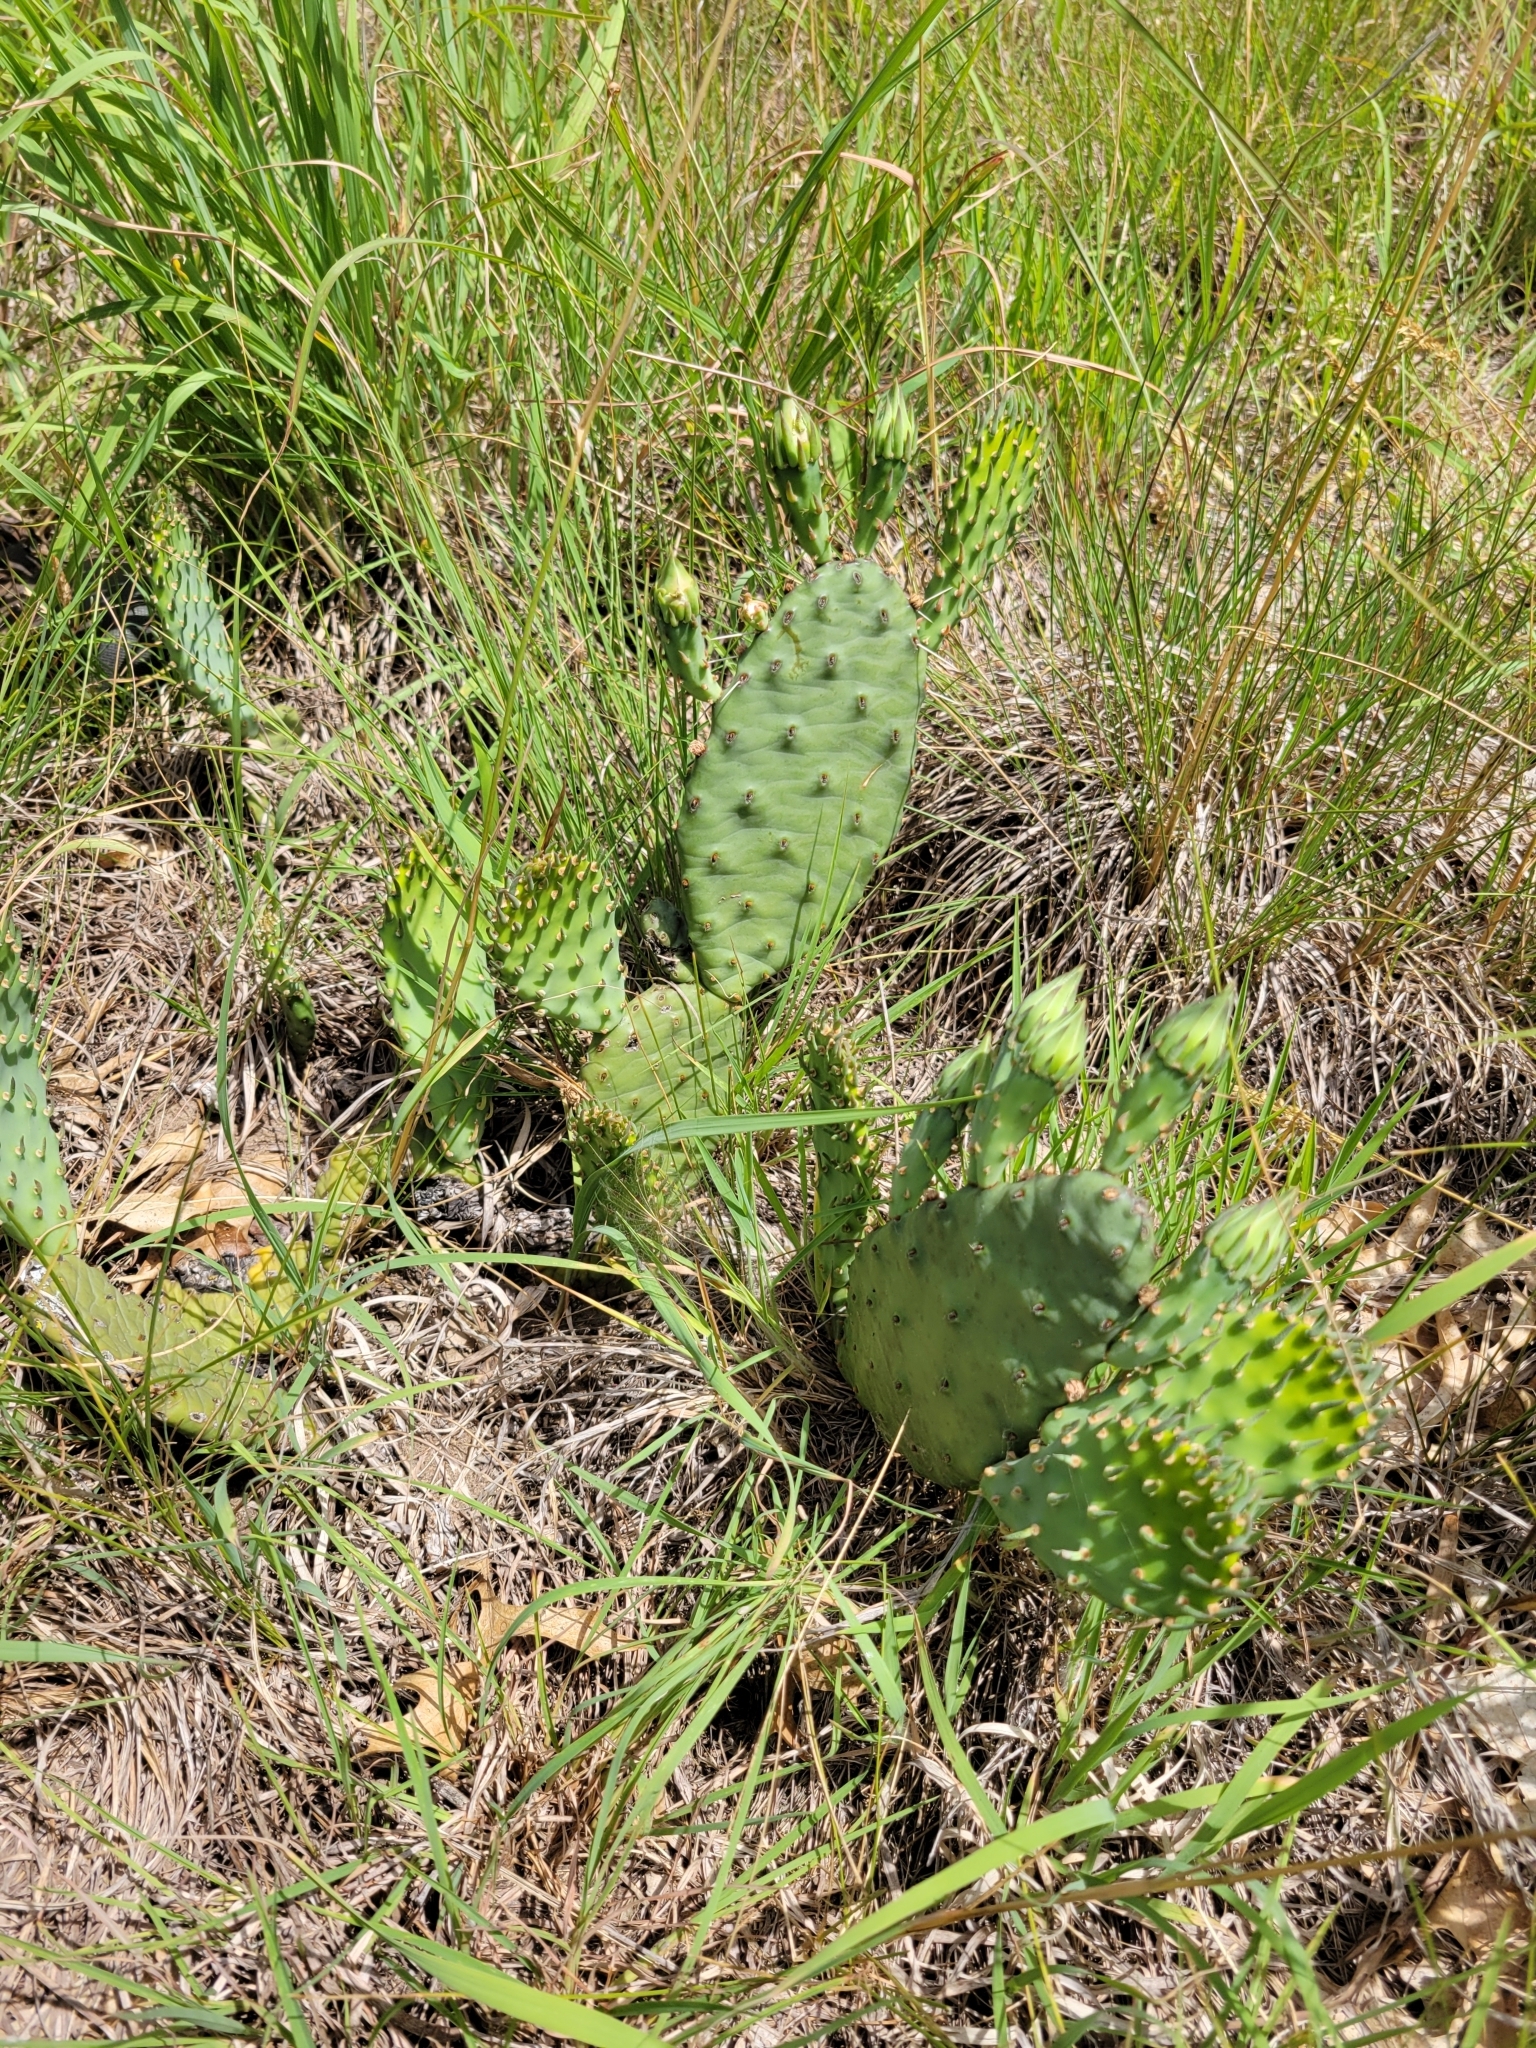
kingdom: Plantae
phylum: Tracheophyta
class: Magnoliopsida
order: Caryophyllales
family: Cactaceae
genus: Opuntia
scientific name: Opuntia macrorhiza
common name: Grassland pricklypear
